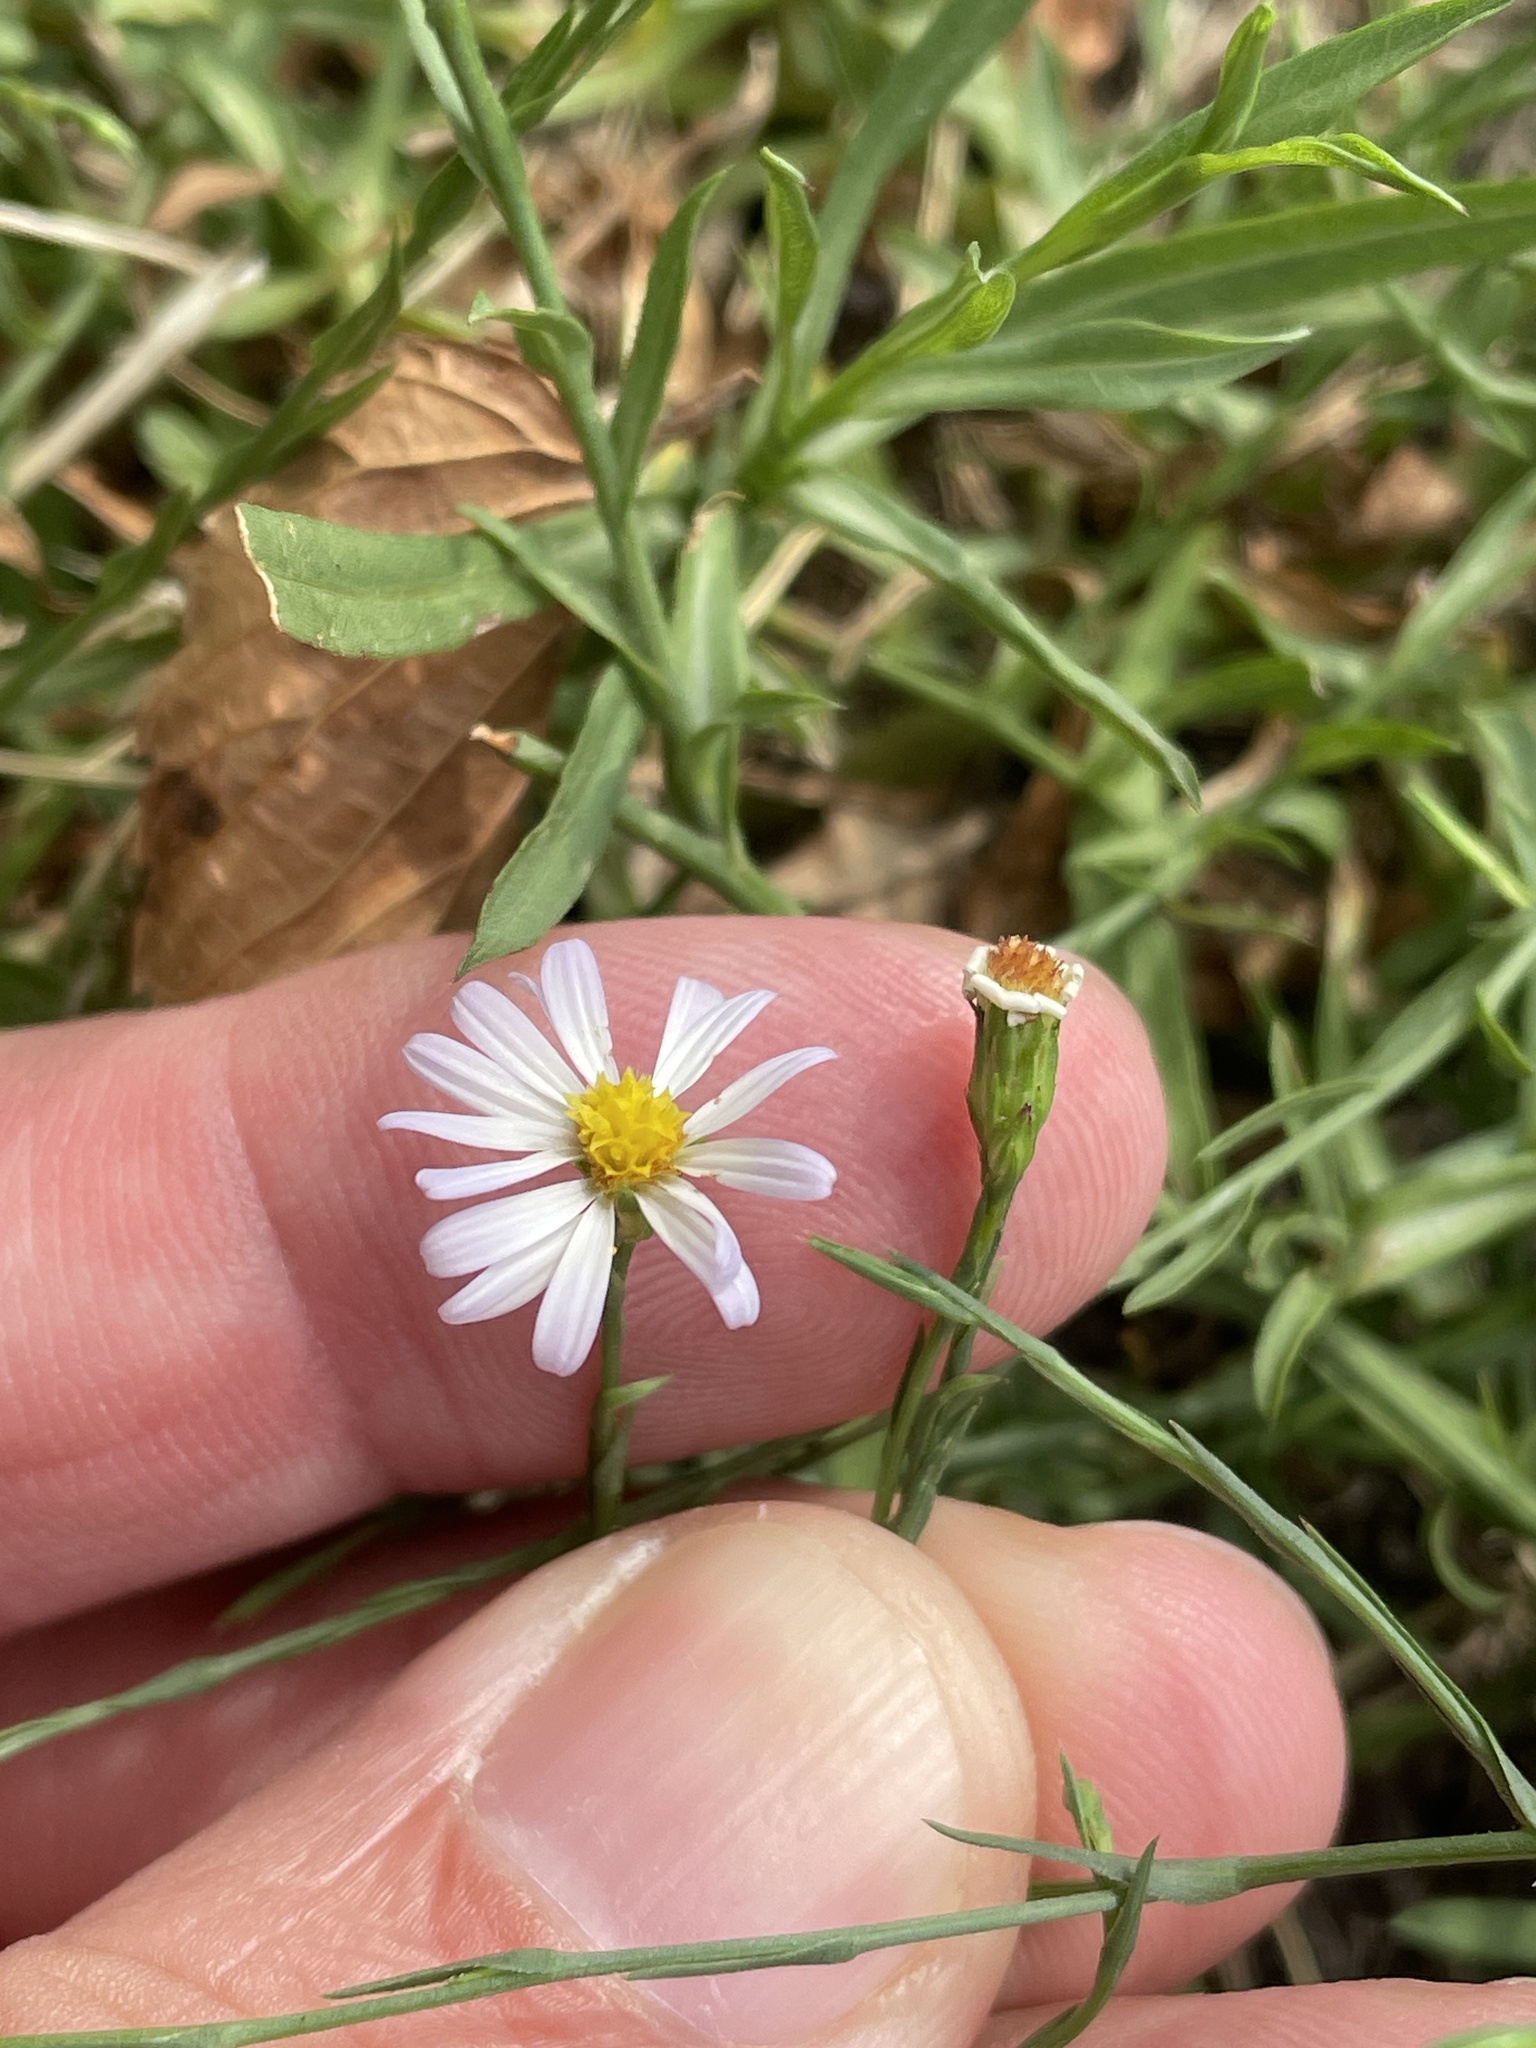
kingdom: Plantae
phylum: Tracheophyta
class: Magnoliopsida
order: Asterales
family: Asteraceae
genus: Symphyotrichum
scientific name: Symphyotrichum divaricatum
